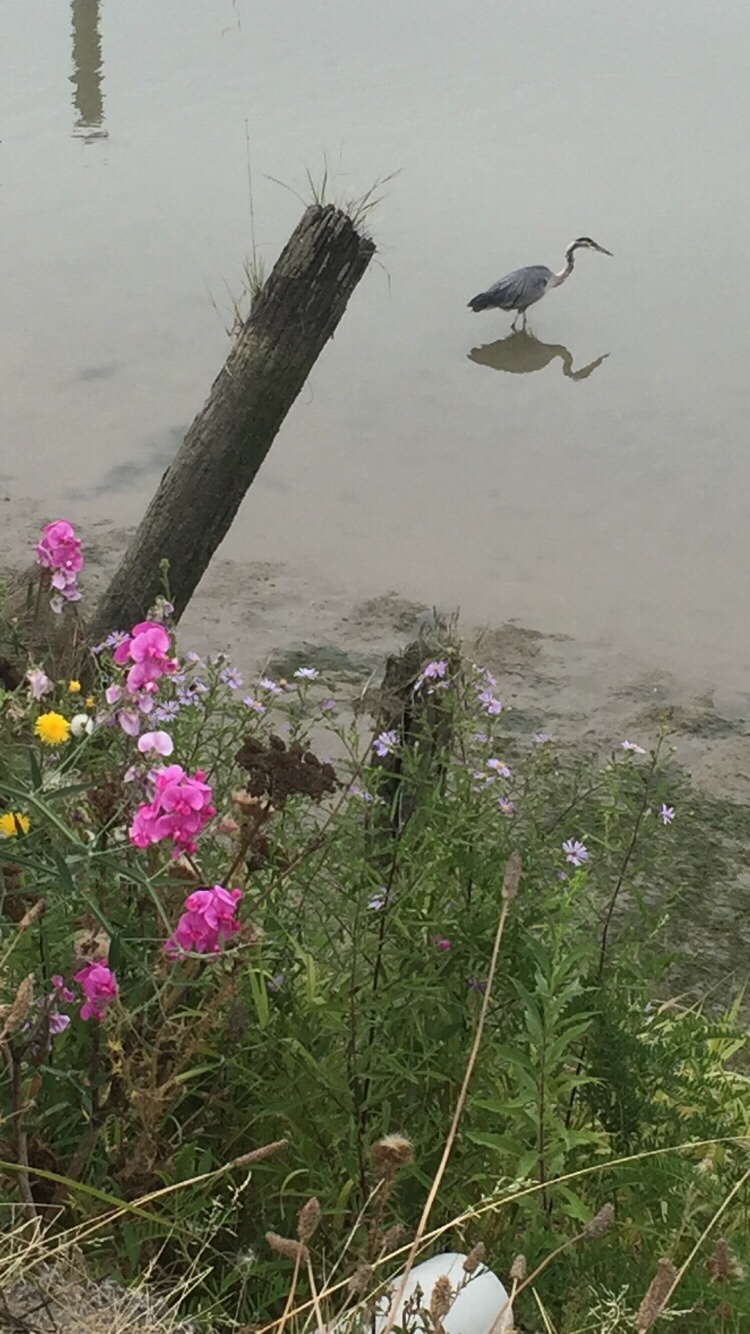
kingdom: Animalia
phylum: Chordata
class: Aves
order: Pelecaniformes
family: Ardeidae
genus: Ardea
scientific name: Ardea herodias
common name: Great blue heron
